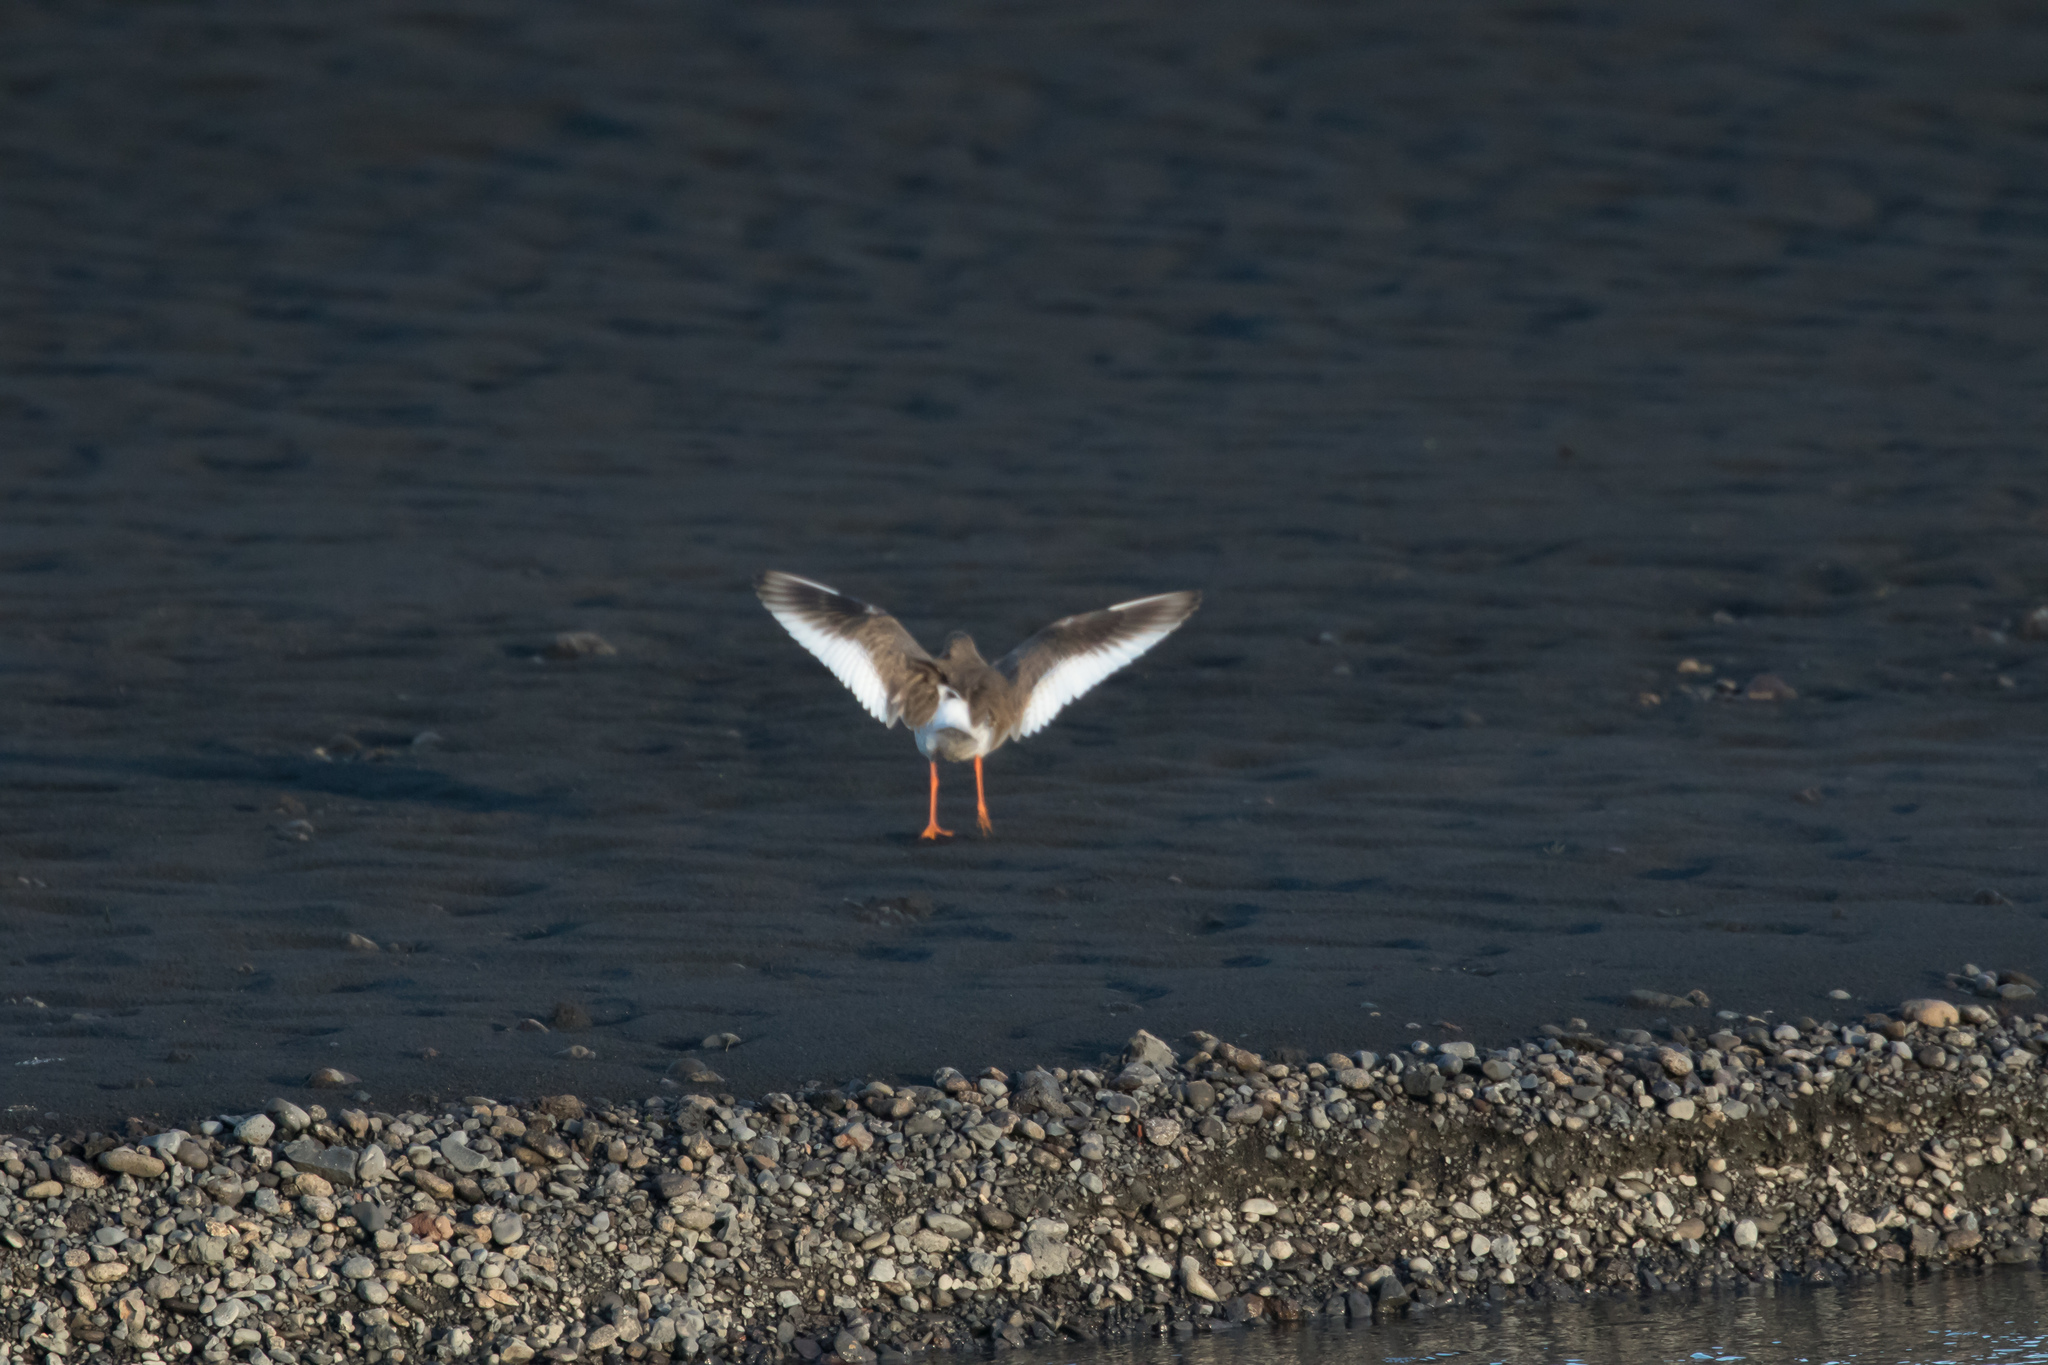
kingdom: Animalia
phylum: Chordata
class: Aves
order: Charadriiformes
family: Scolopacidae
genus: Tringa
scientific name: Tringa totanus
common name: Common redshank
